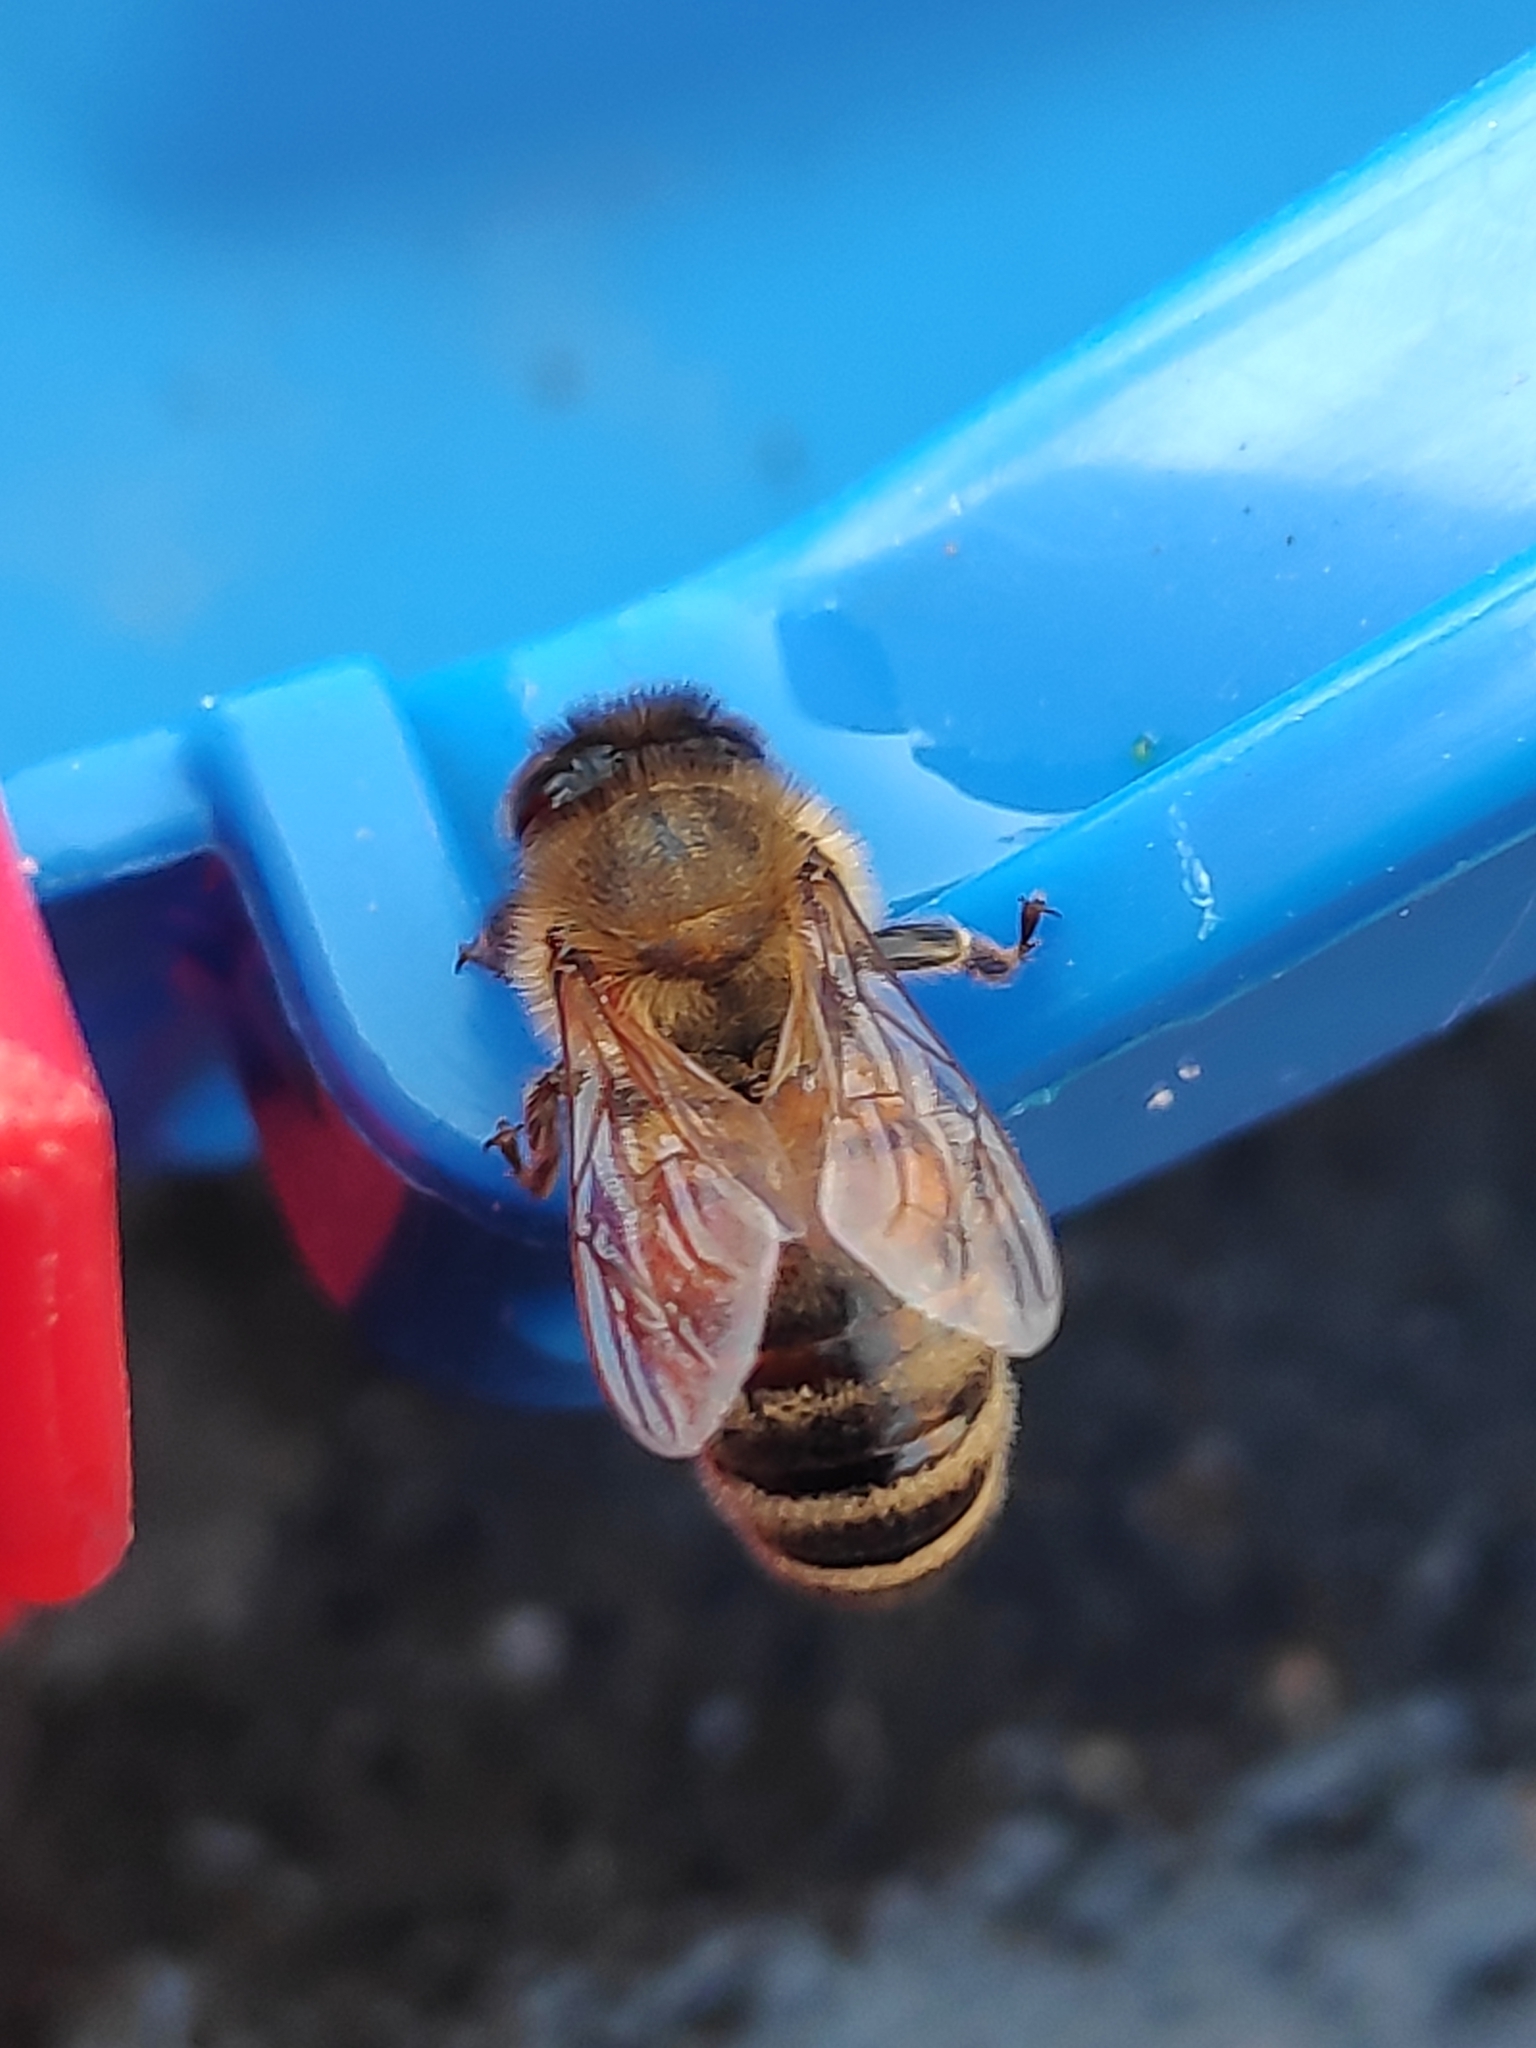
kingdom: Animalia
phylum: Arthropoda
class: Insecta
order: Hymenoptera
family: Apidae
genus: Apis
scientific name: Apis mellifera
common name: Honey bee
